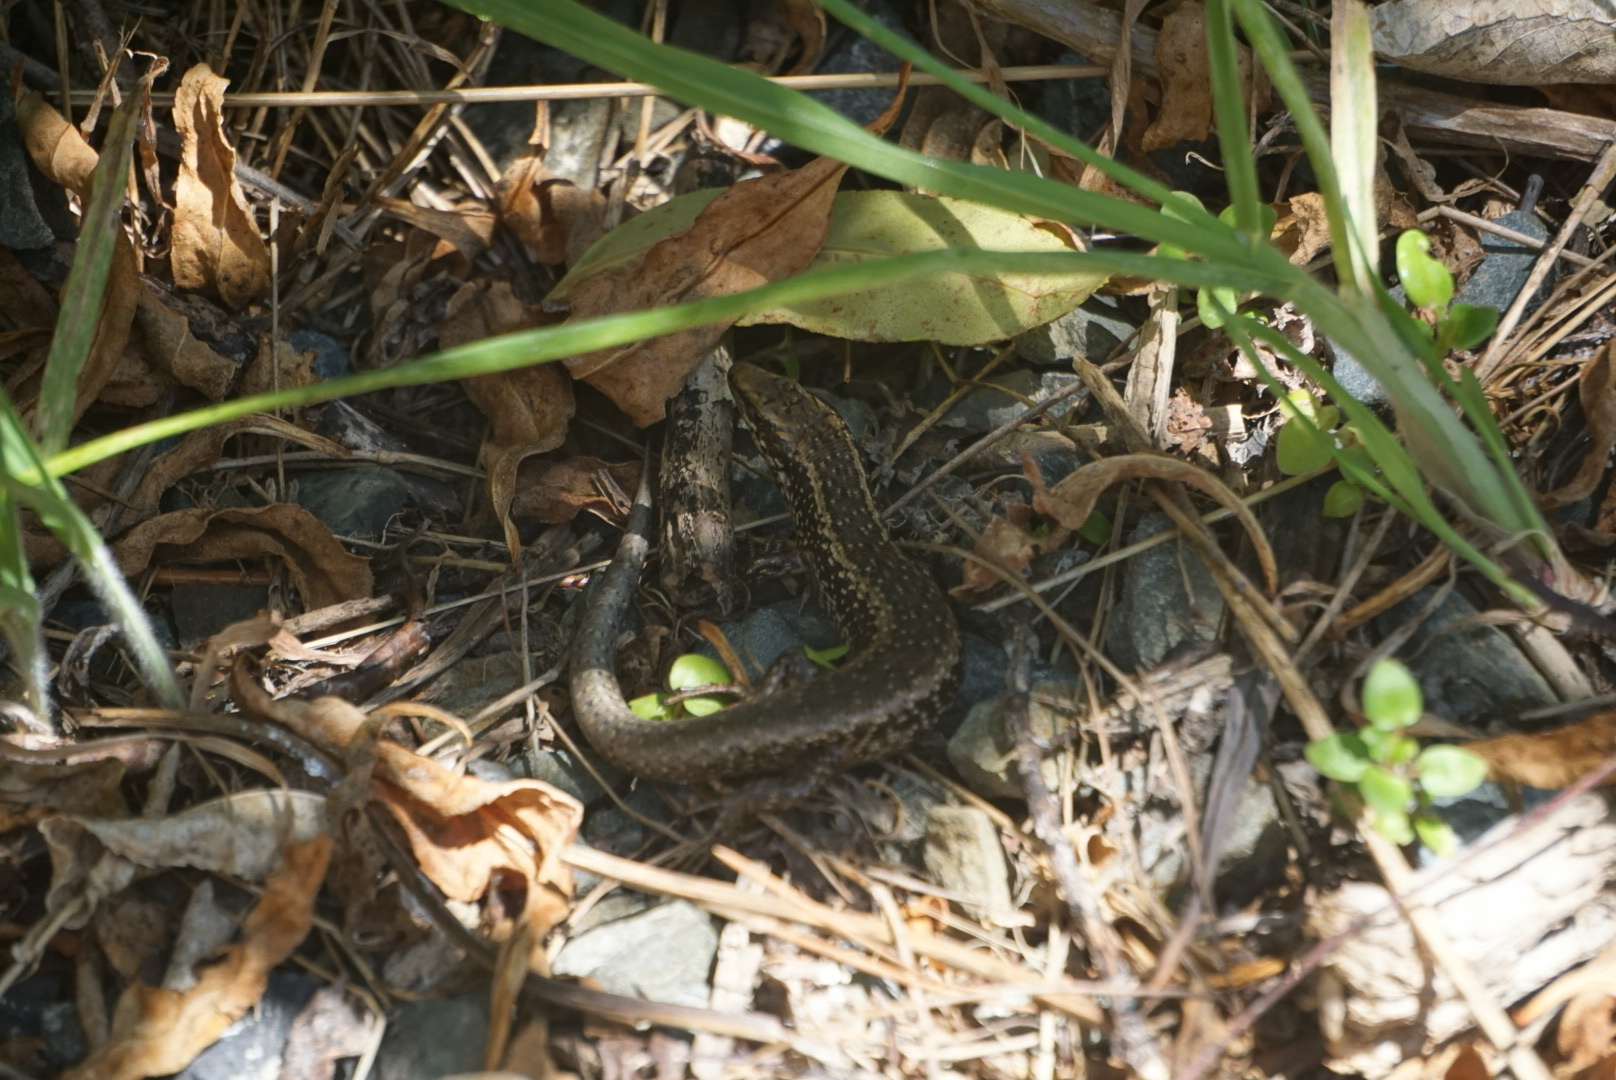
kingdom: Animalia
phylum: Chordata
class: Squamata
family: Scincidae
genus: Oligosoma
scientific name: Oligosoma kokowai
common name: Northern spotted skink
